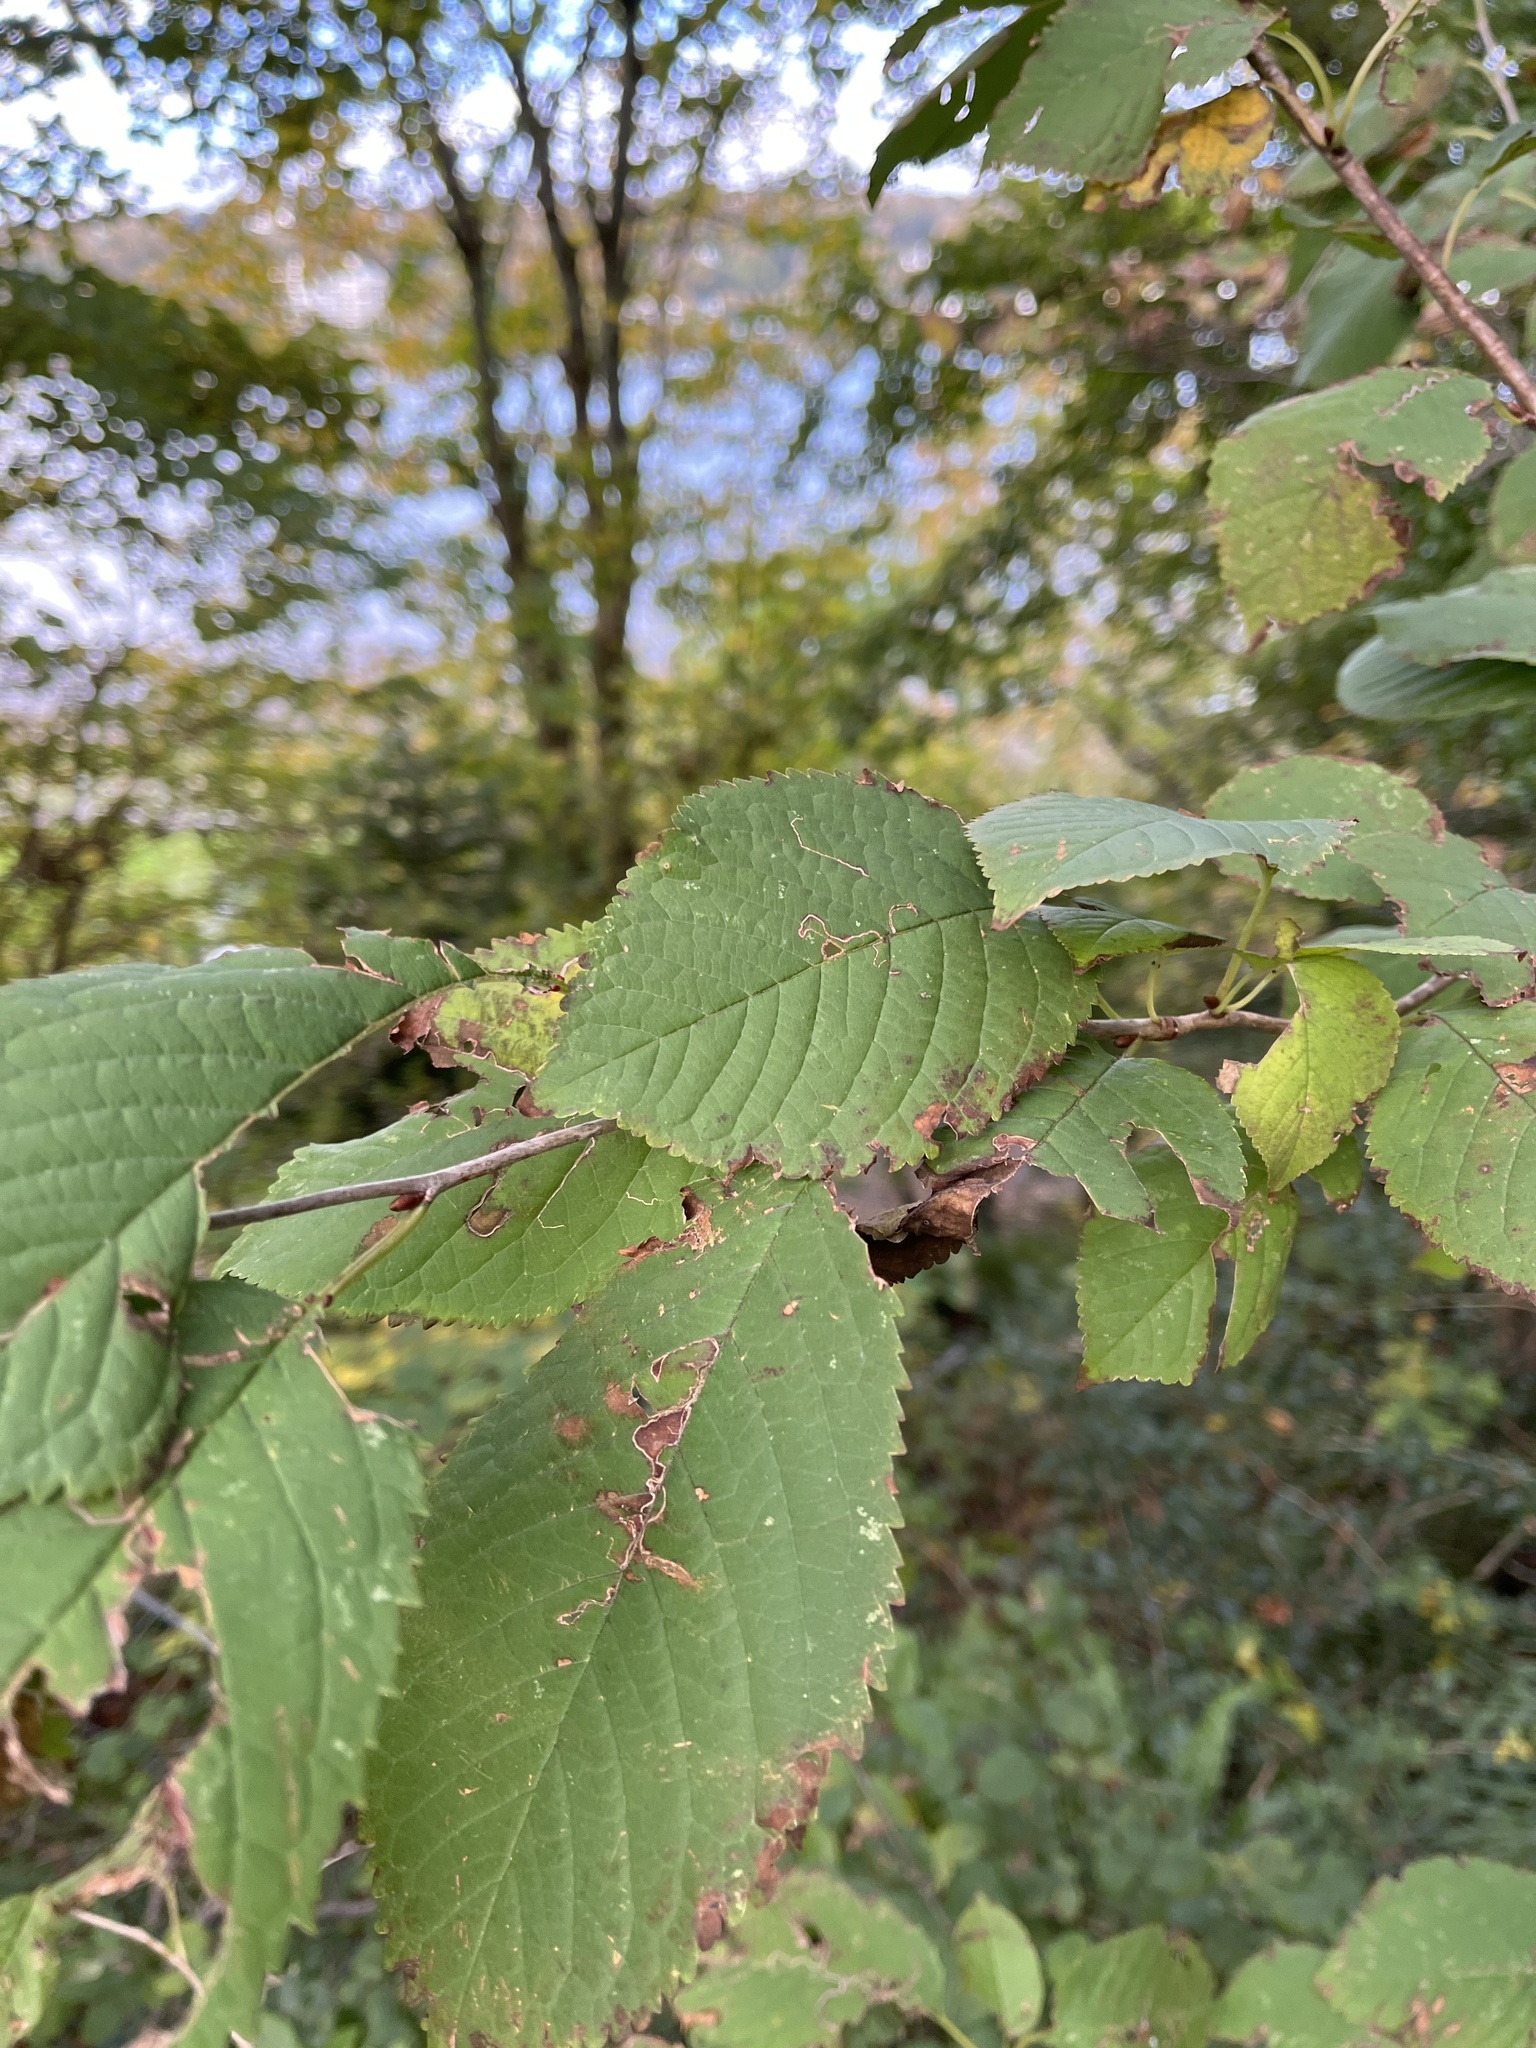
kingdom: Plantae
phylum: Tracheophyta
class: Magnoliopsida
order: Rosales
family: Rosaceae
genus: Prunus
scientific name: Prunus avium
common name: Sweet cherry
